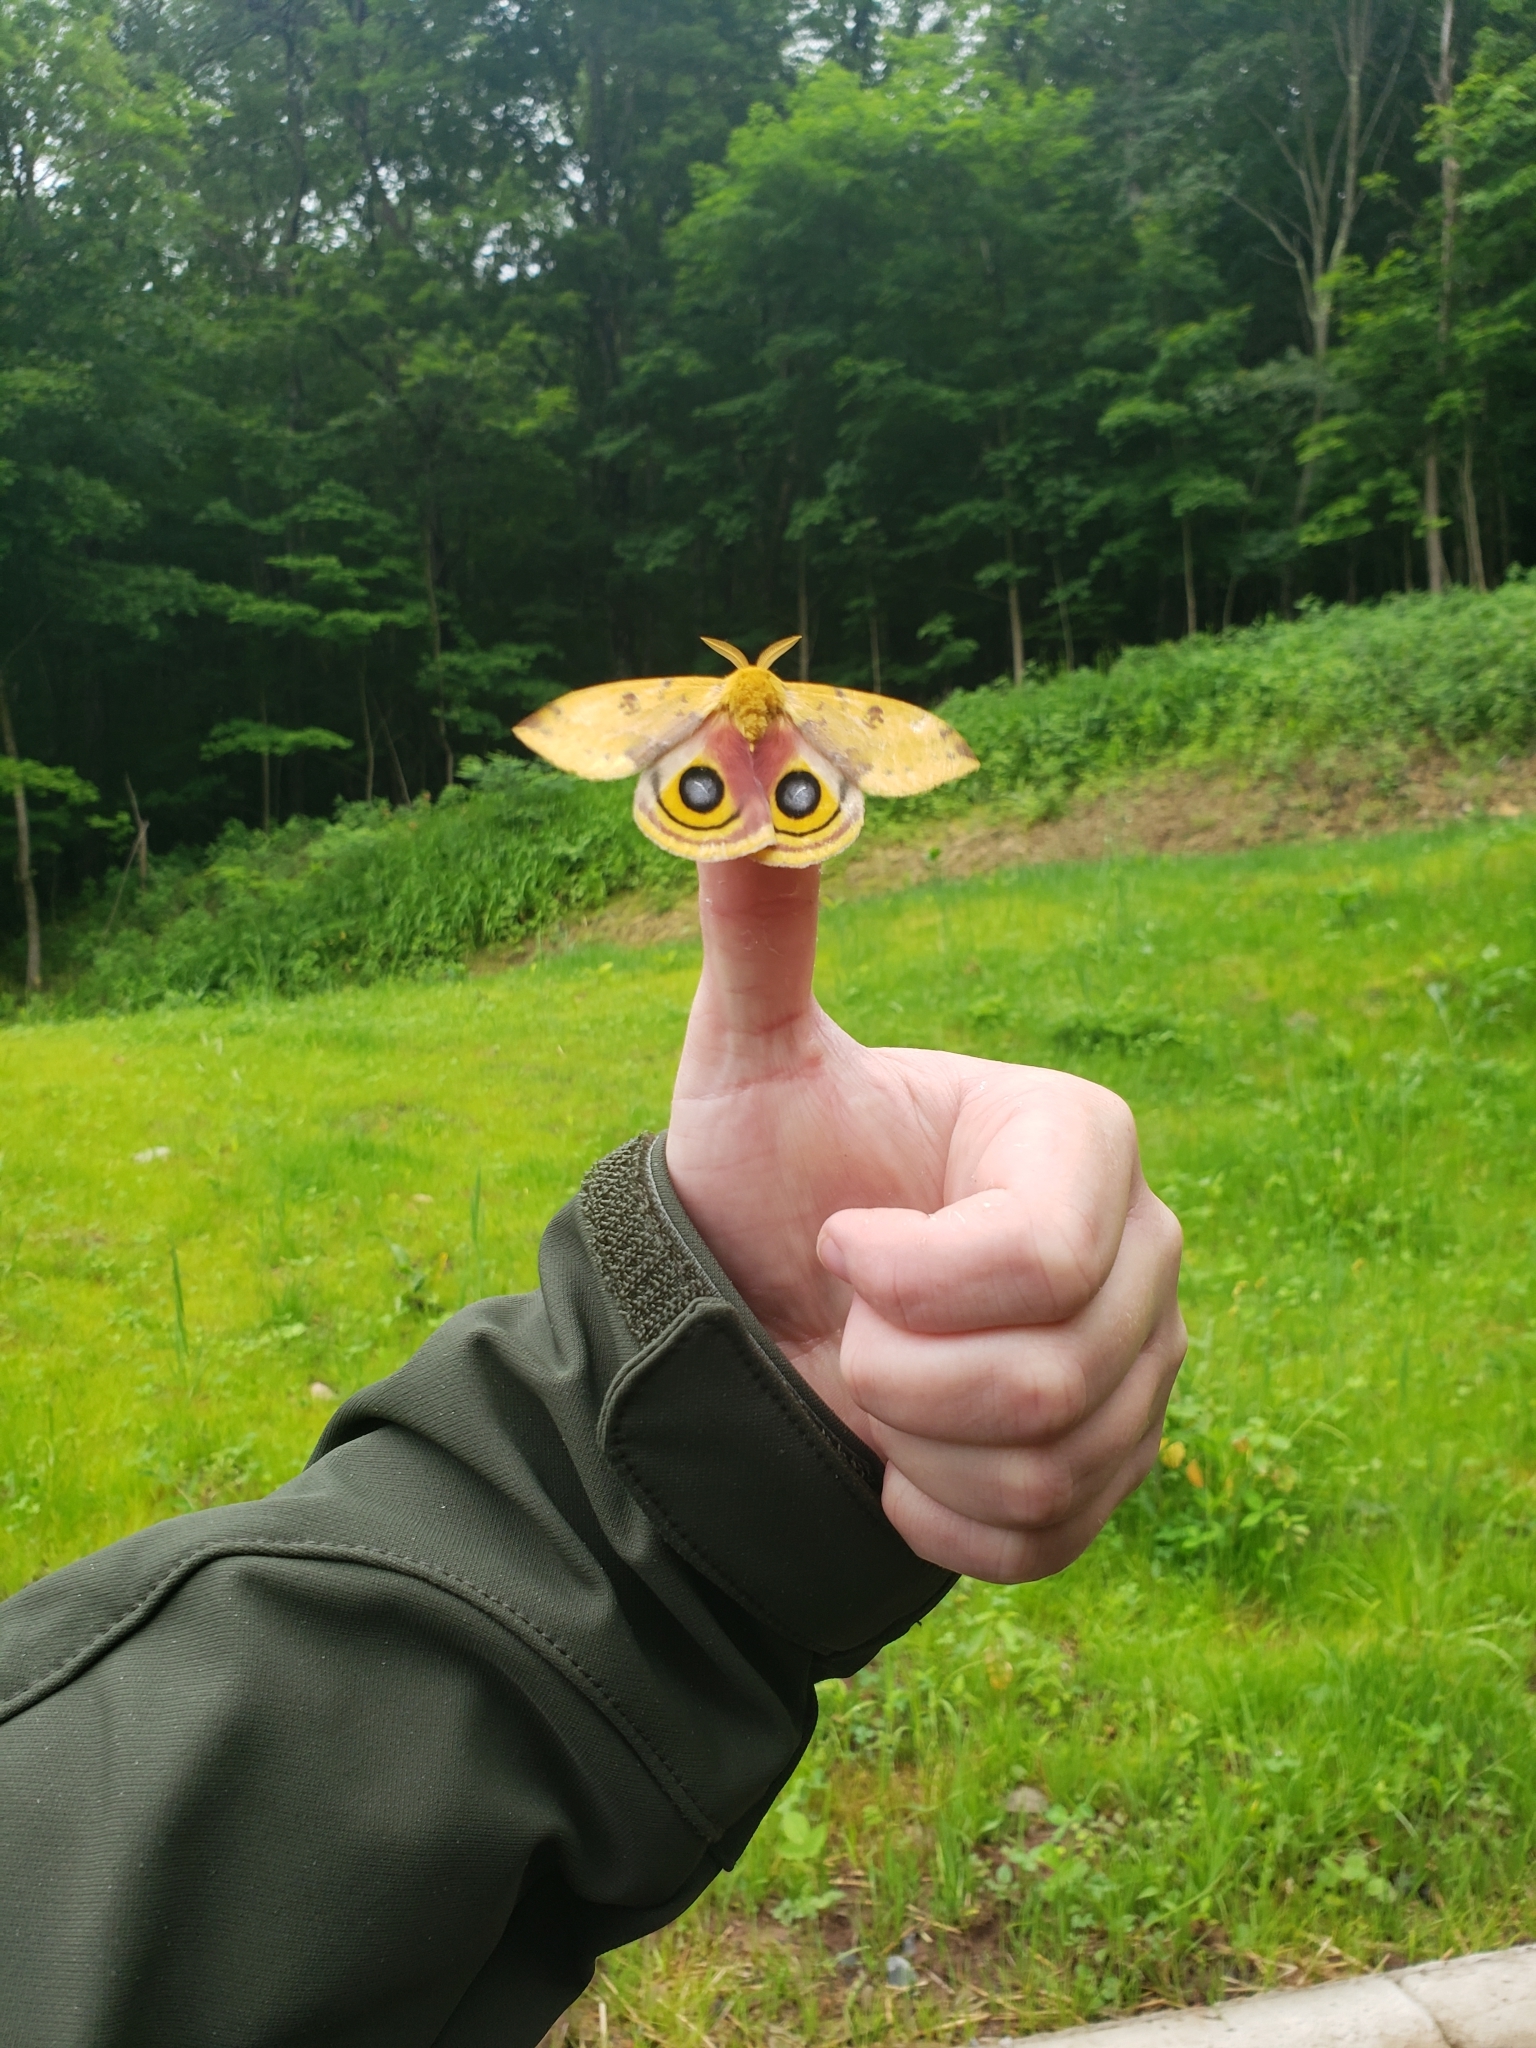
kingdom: Animalia
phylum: Arthropoda
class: Insecta
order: Lepidoptera
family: Saturniidae
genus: Automeris
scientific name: Automeris io
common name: Io moth
